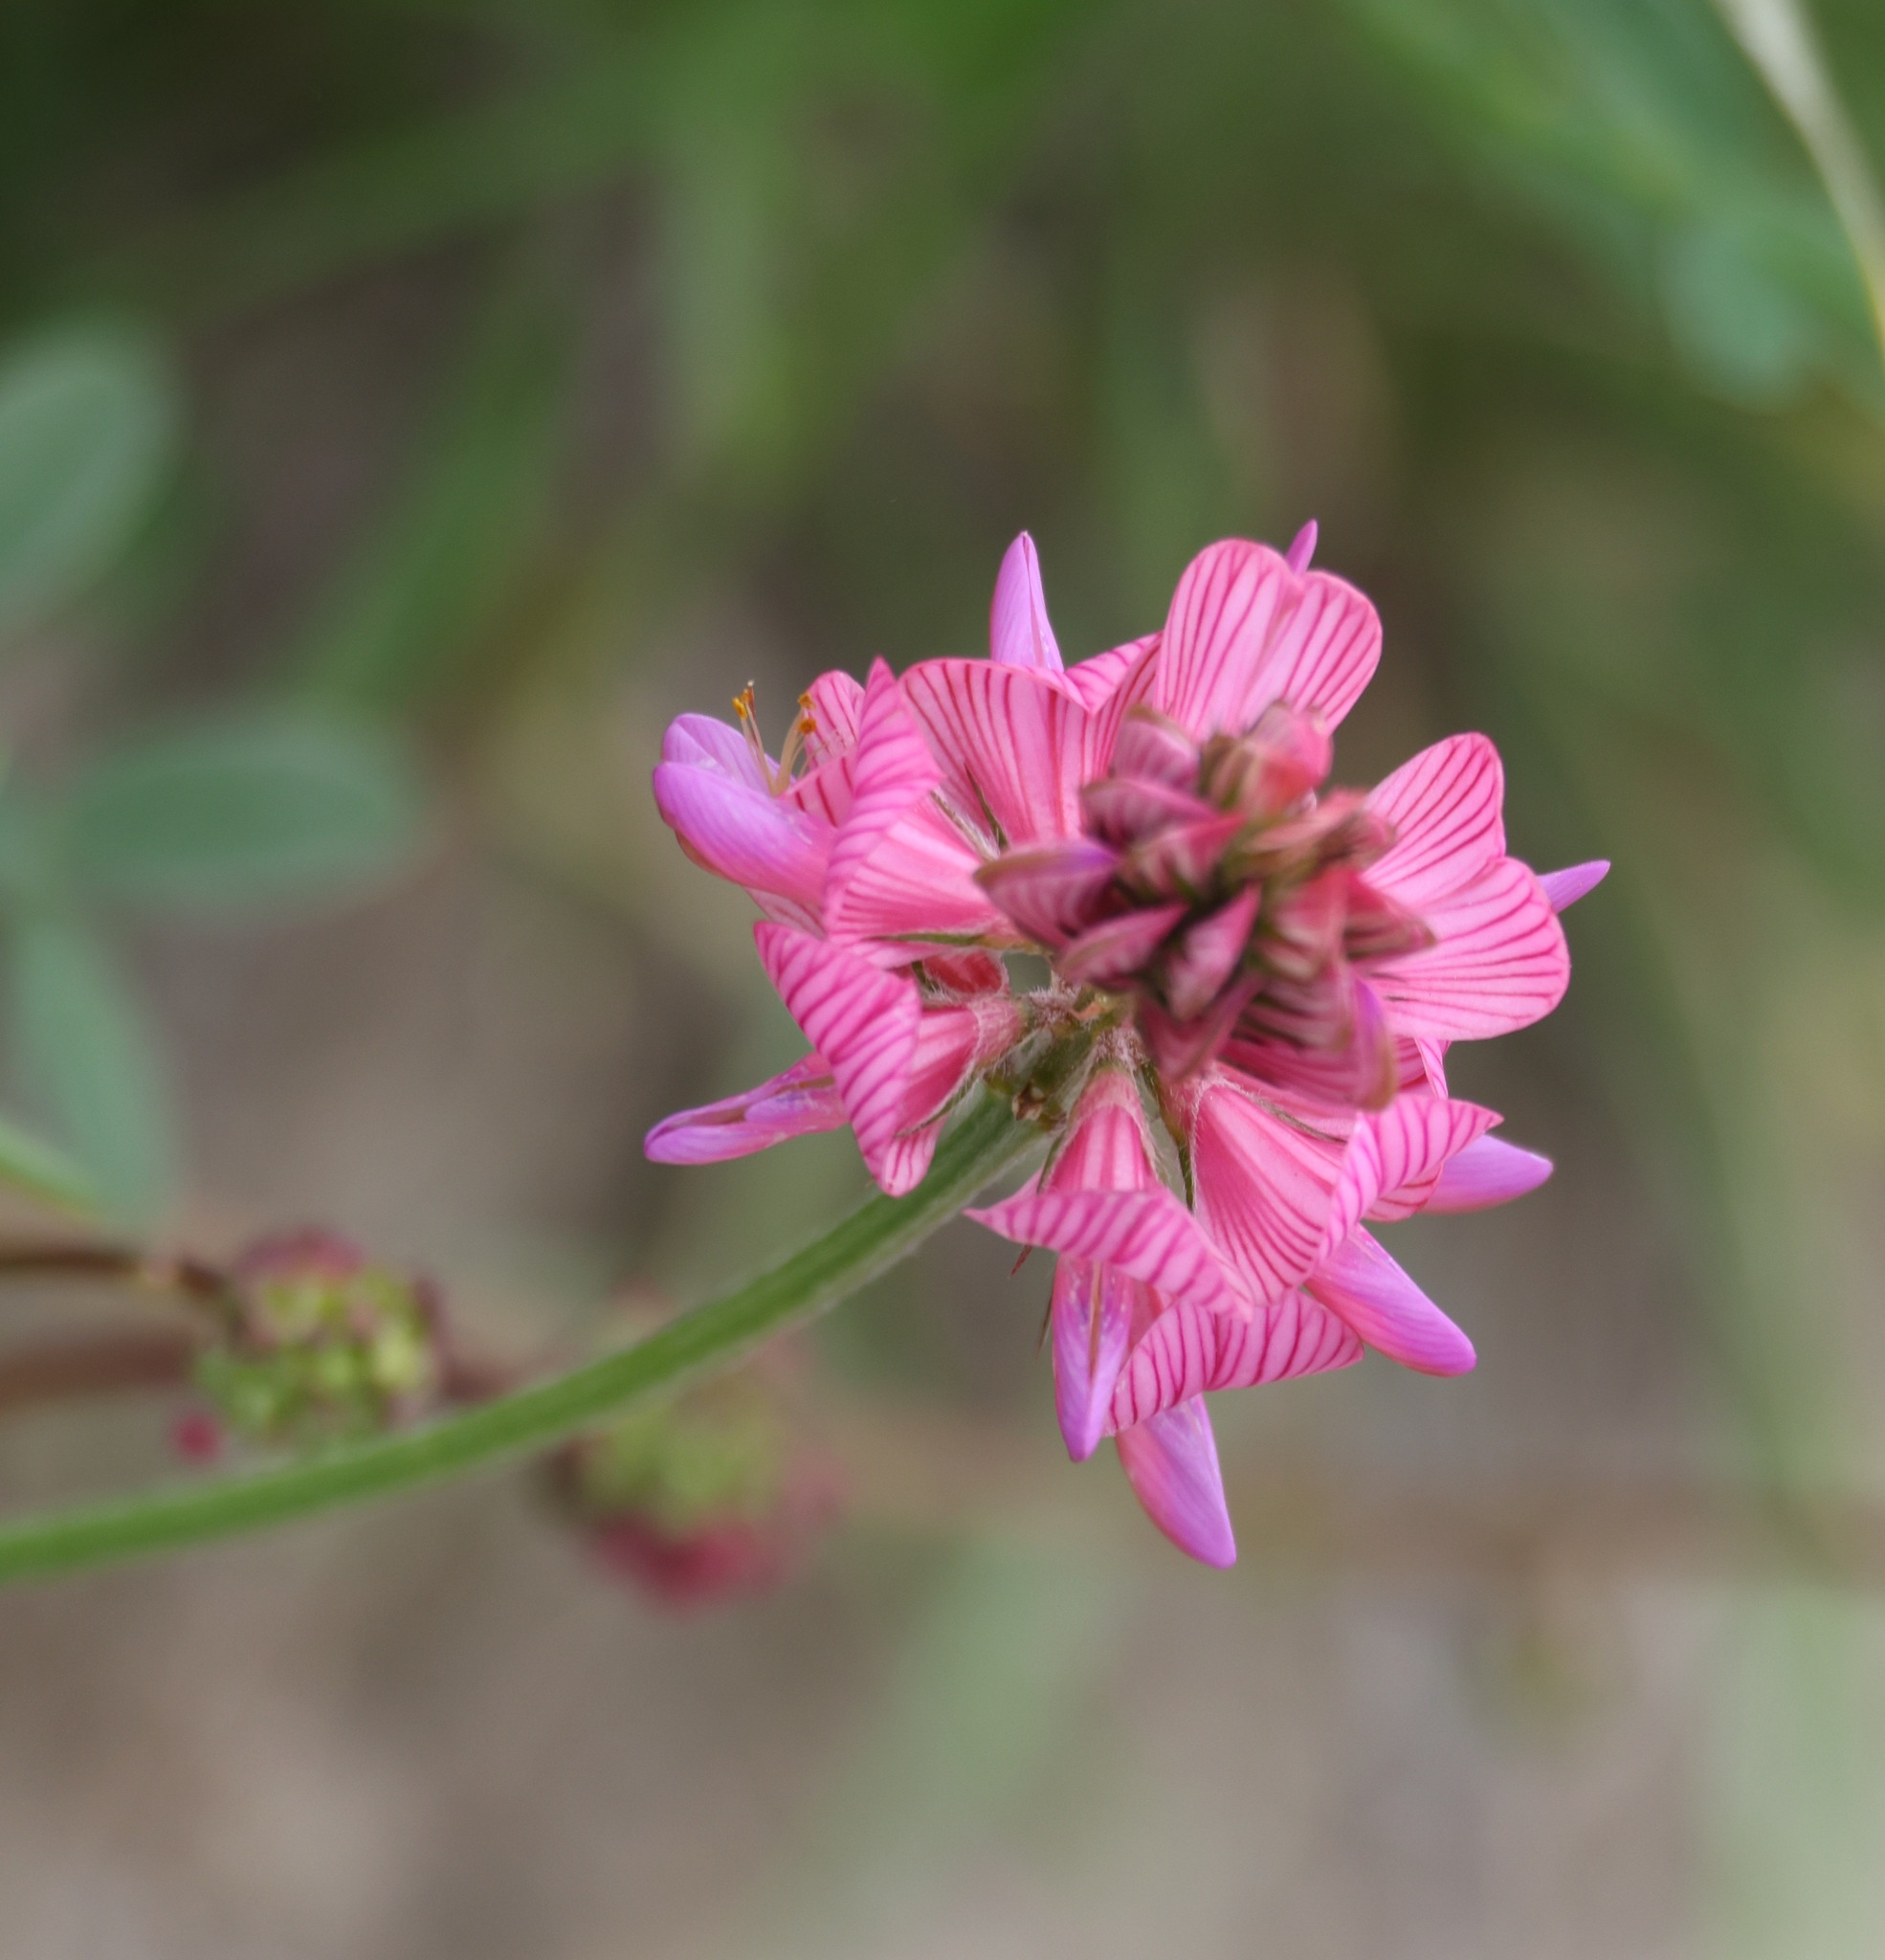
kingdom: Plantae
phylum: Tracheophyta
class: Magnoliopsida
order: Fabales
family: Fabaceae
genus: Onobrychis
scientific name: Onobrychis viciifolia
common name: Sainfoin
